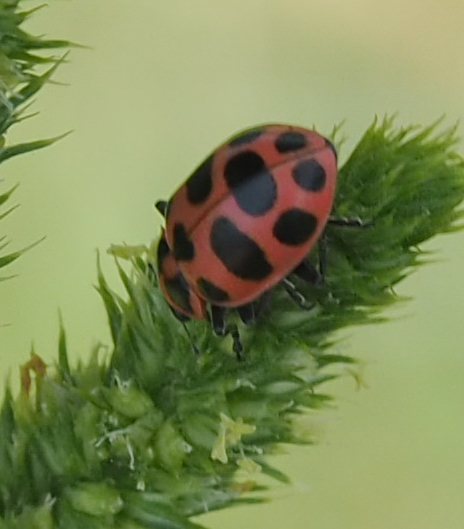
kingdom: Animalia
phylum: Arthropoda
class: Insecta
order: Coleoptera
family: Coccinellidae
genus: Coleomegilla
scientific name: Coleomegilla maculata
